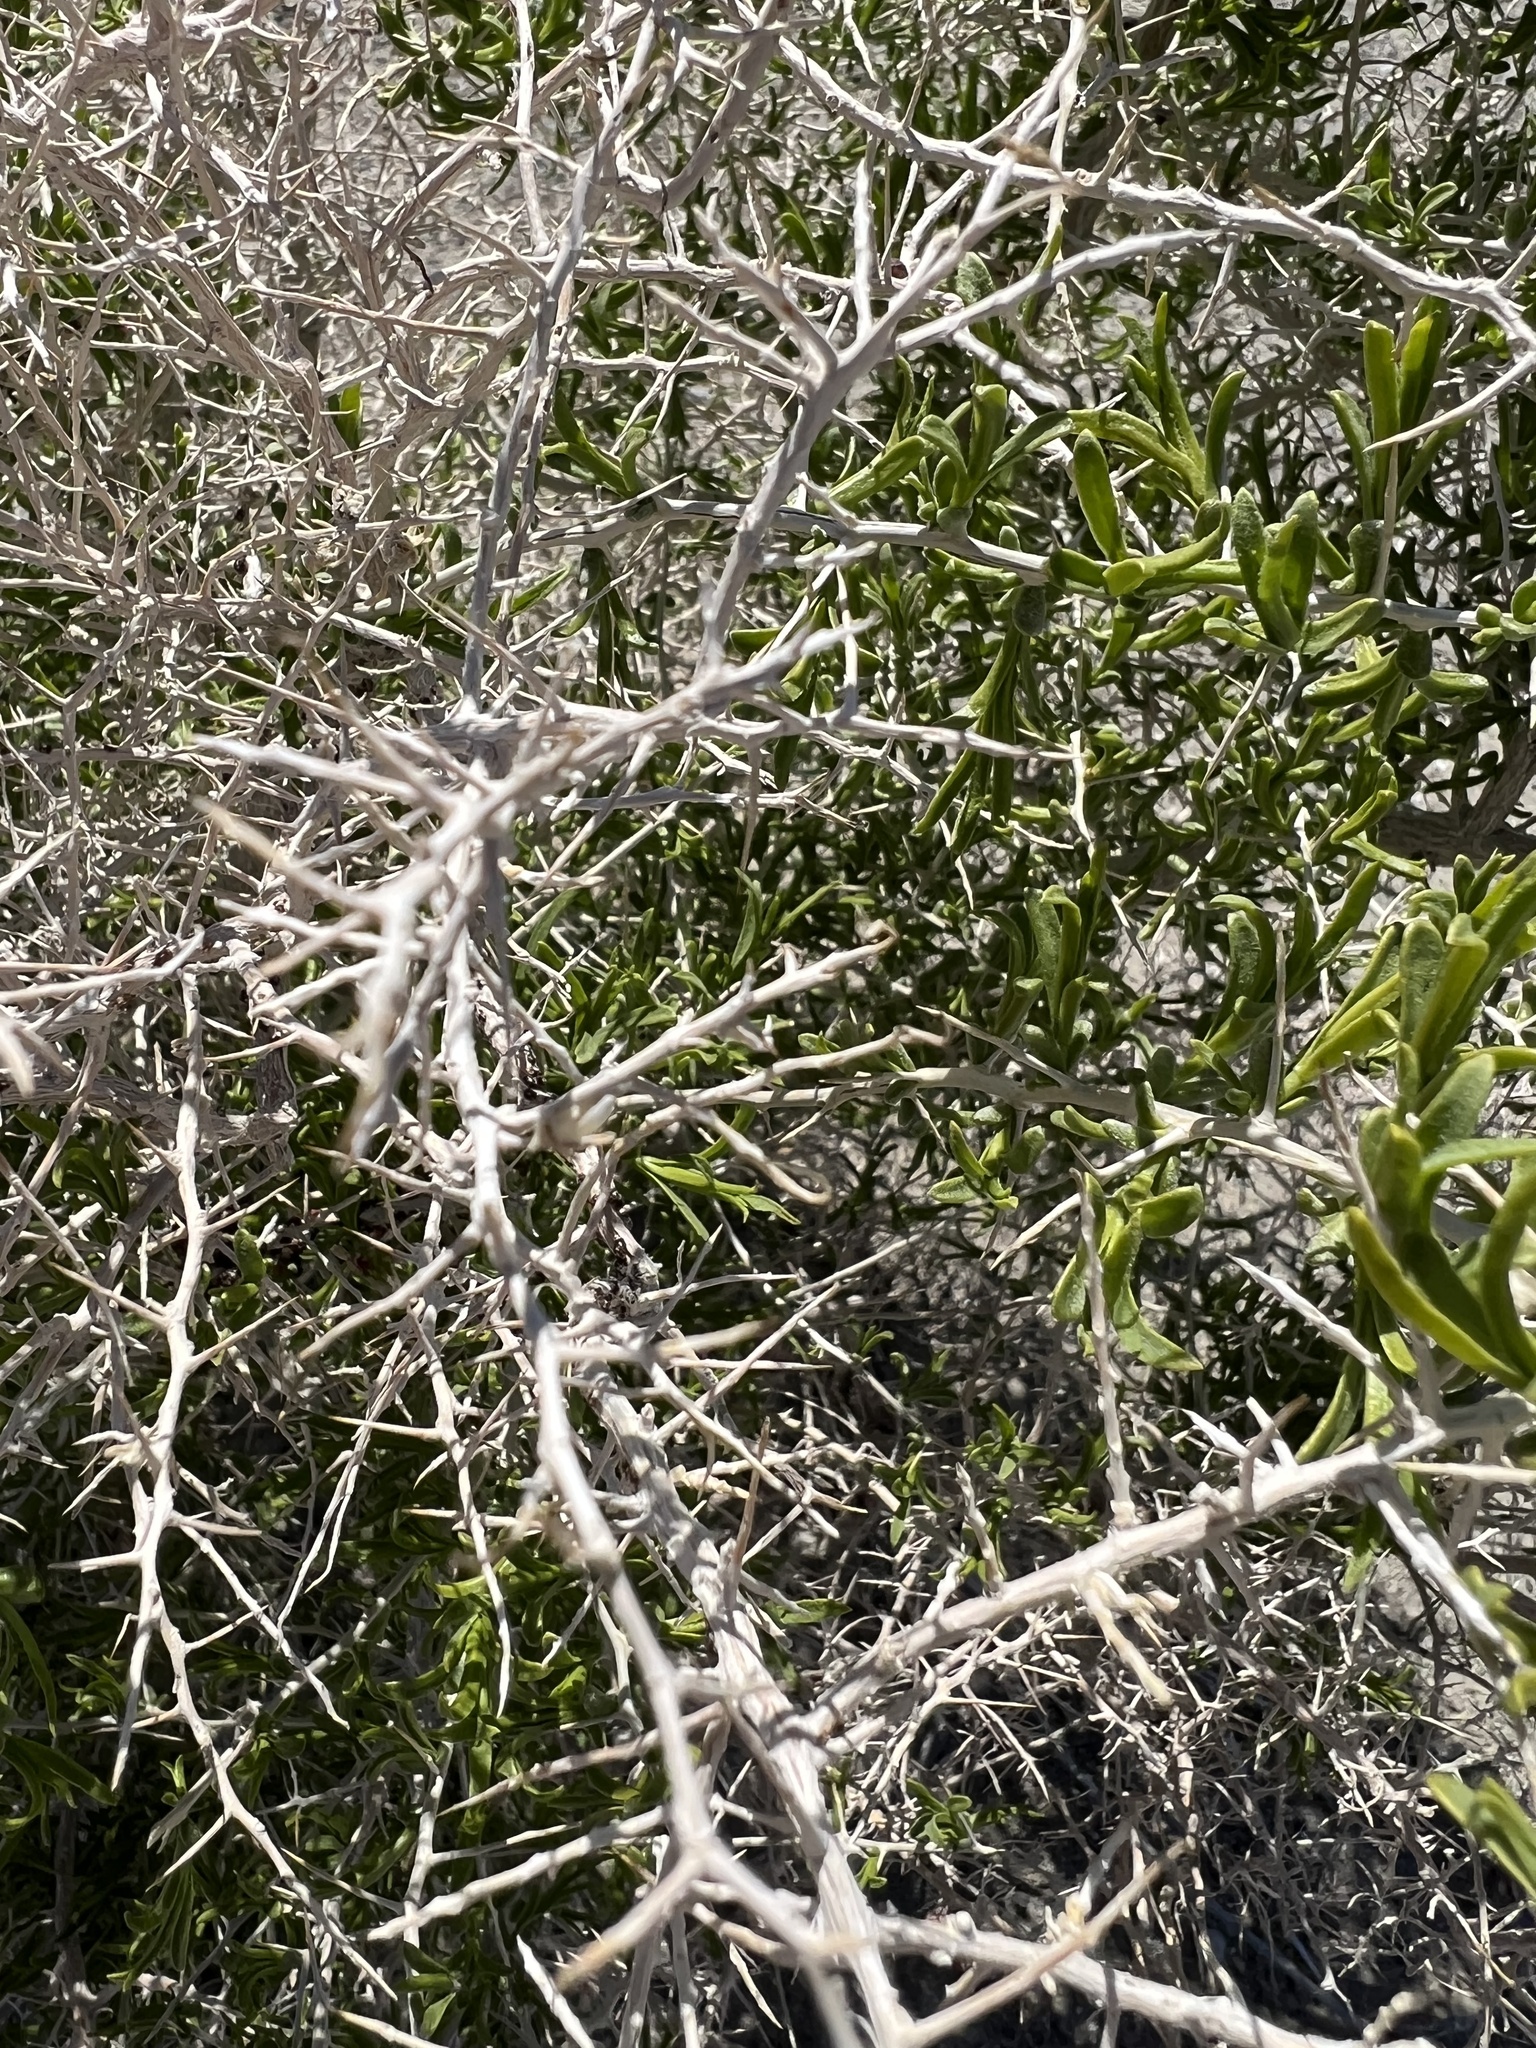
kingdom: Plantae
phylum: Tracheophyta
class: Magnoliopsida
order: Caryophyllales
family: Sarcobataceae
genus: Sarcobatus
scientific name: Sarcobatus vermiculatus
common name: Greasewood
